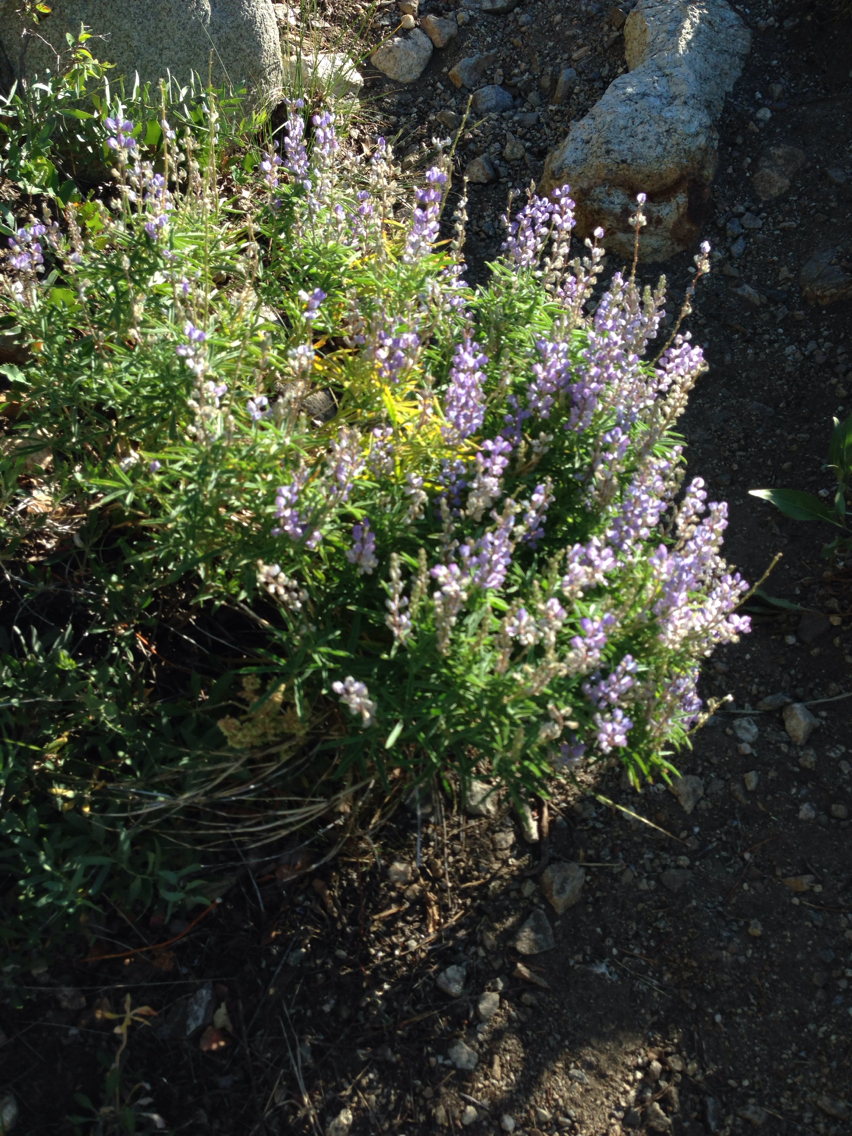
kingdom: Plantae
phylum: Tracheophyta
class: Magnoliopsida
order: Fabales
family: Fabaceae
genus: Lupinus
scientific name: Lupinus
